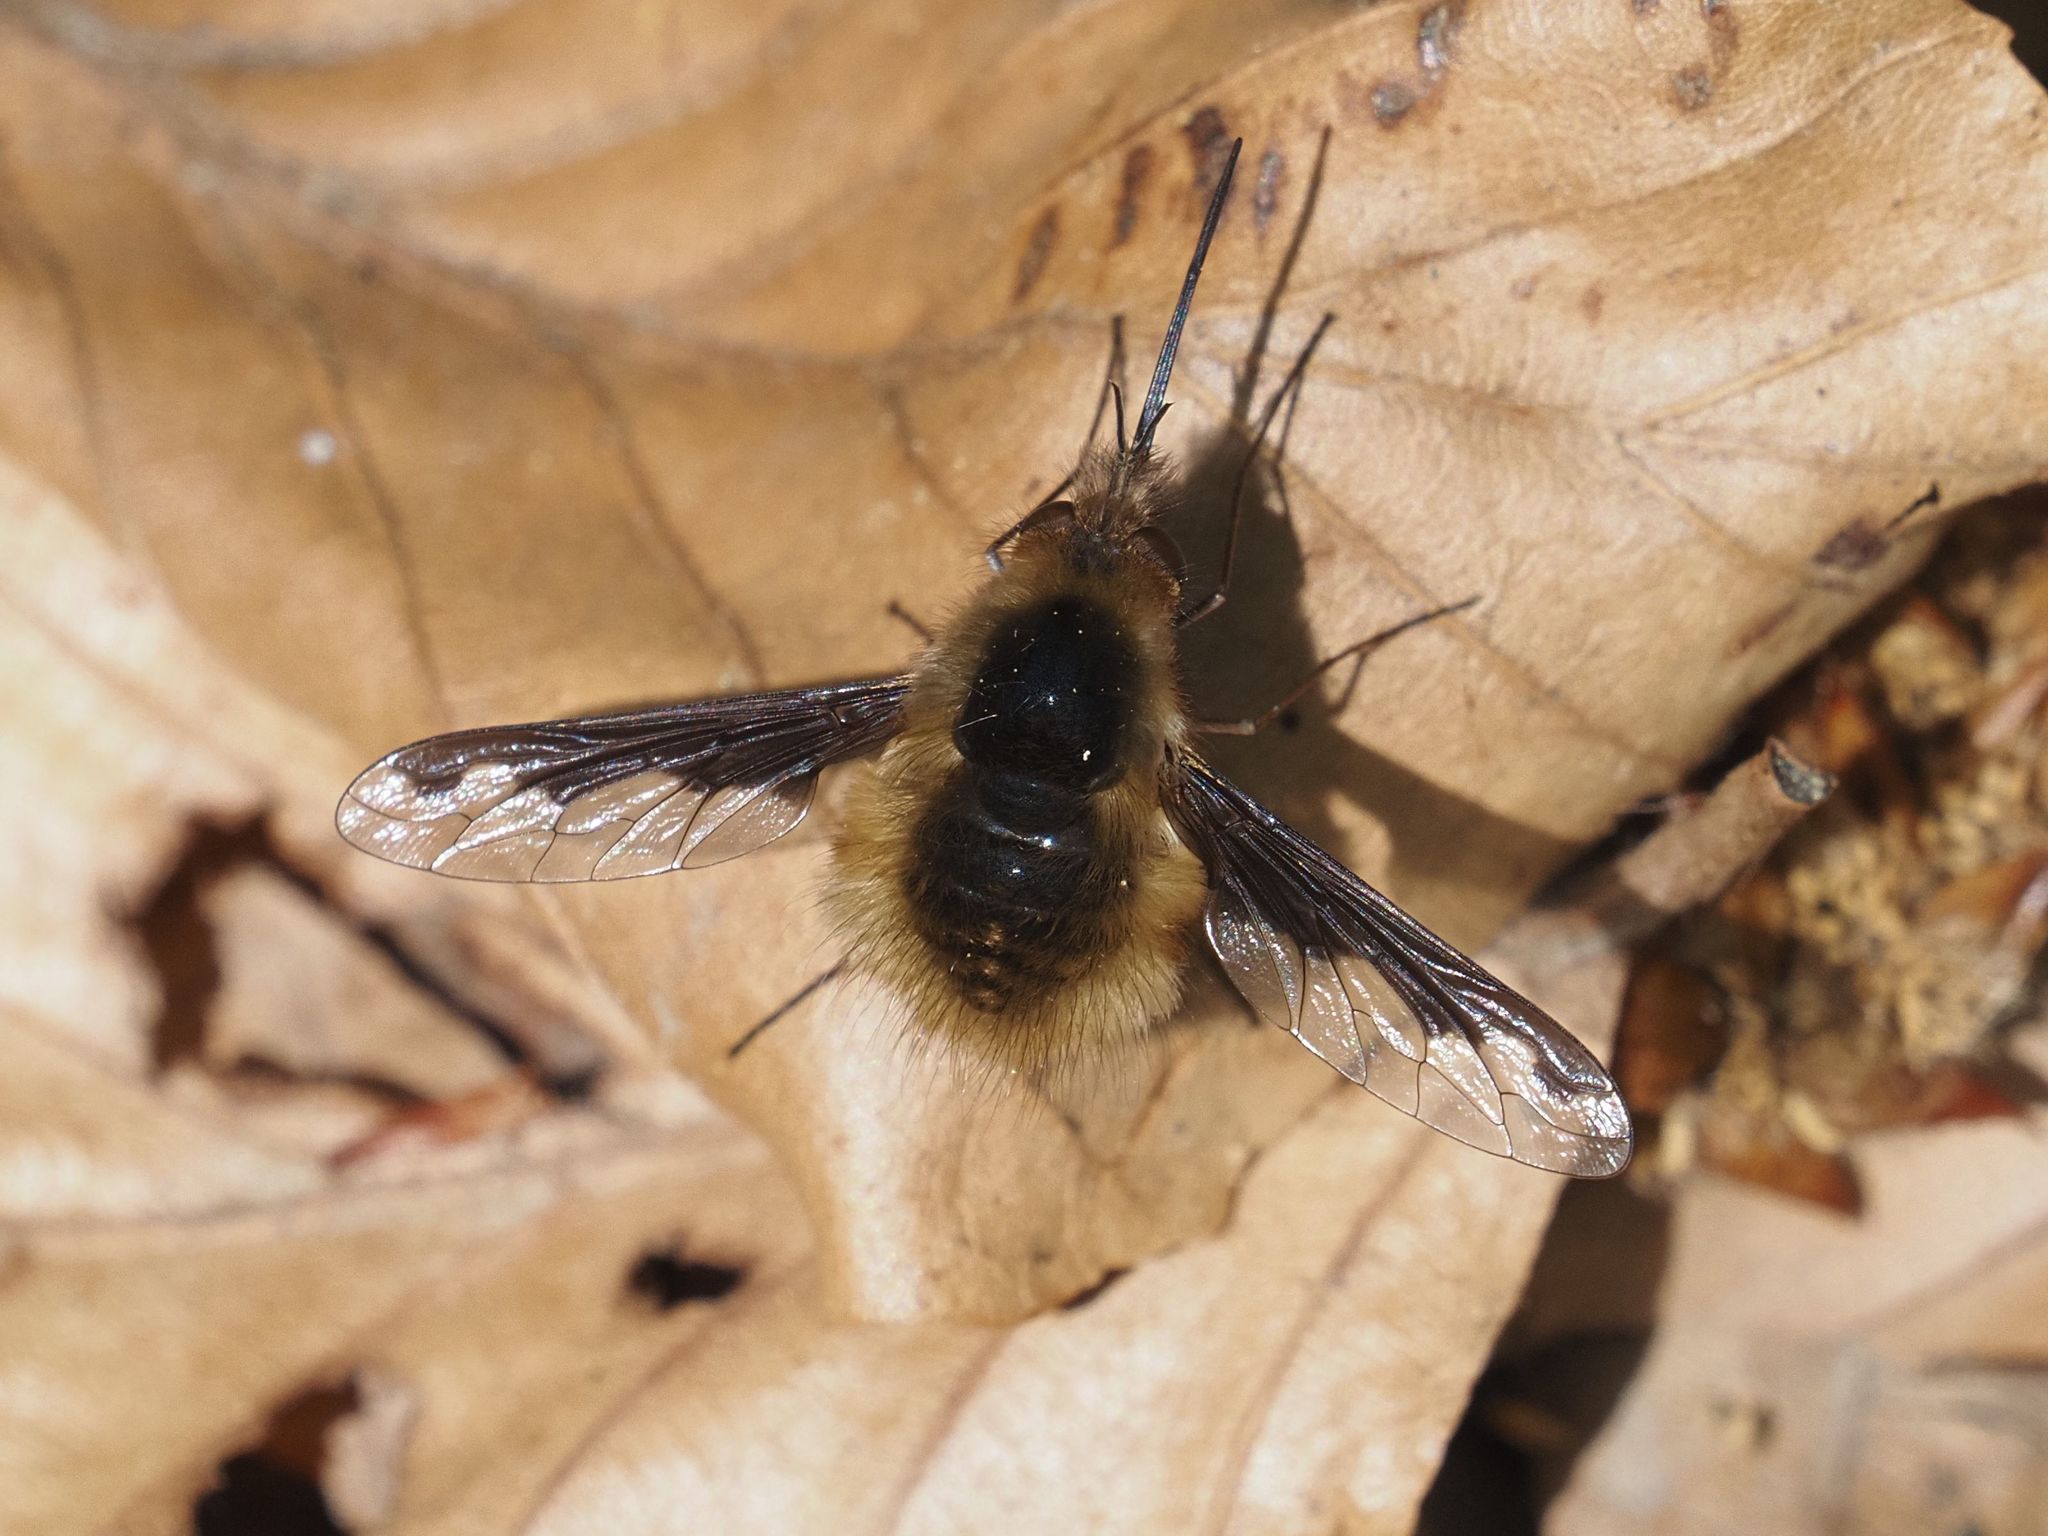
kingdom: Animalia
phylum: Arthropoda
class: Insecta
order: Diptera
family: Bombyliidae
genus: Bombylius
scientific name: Bombylius major
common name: Bee fly
